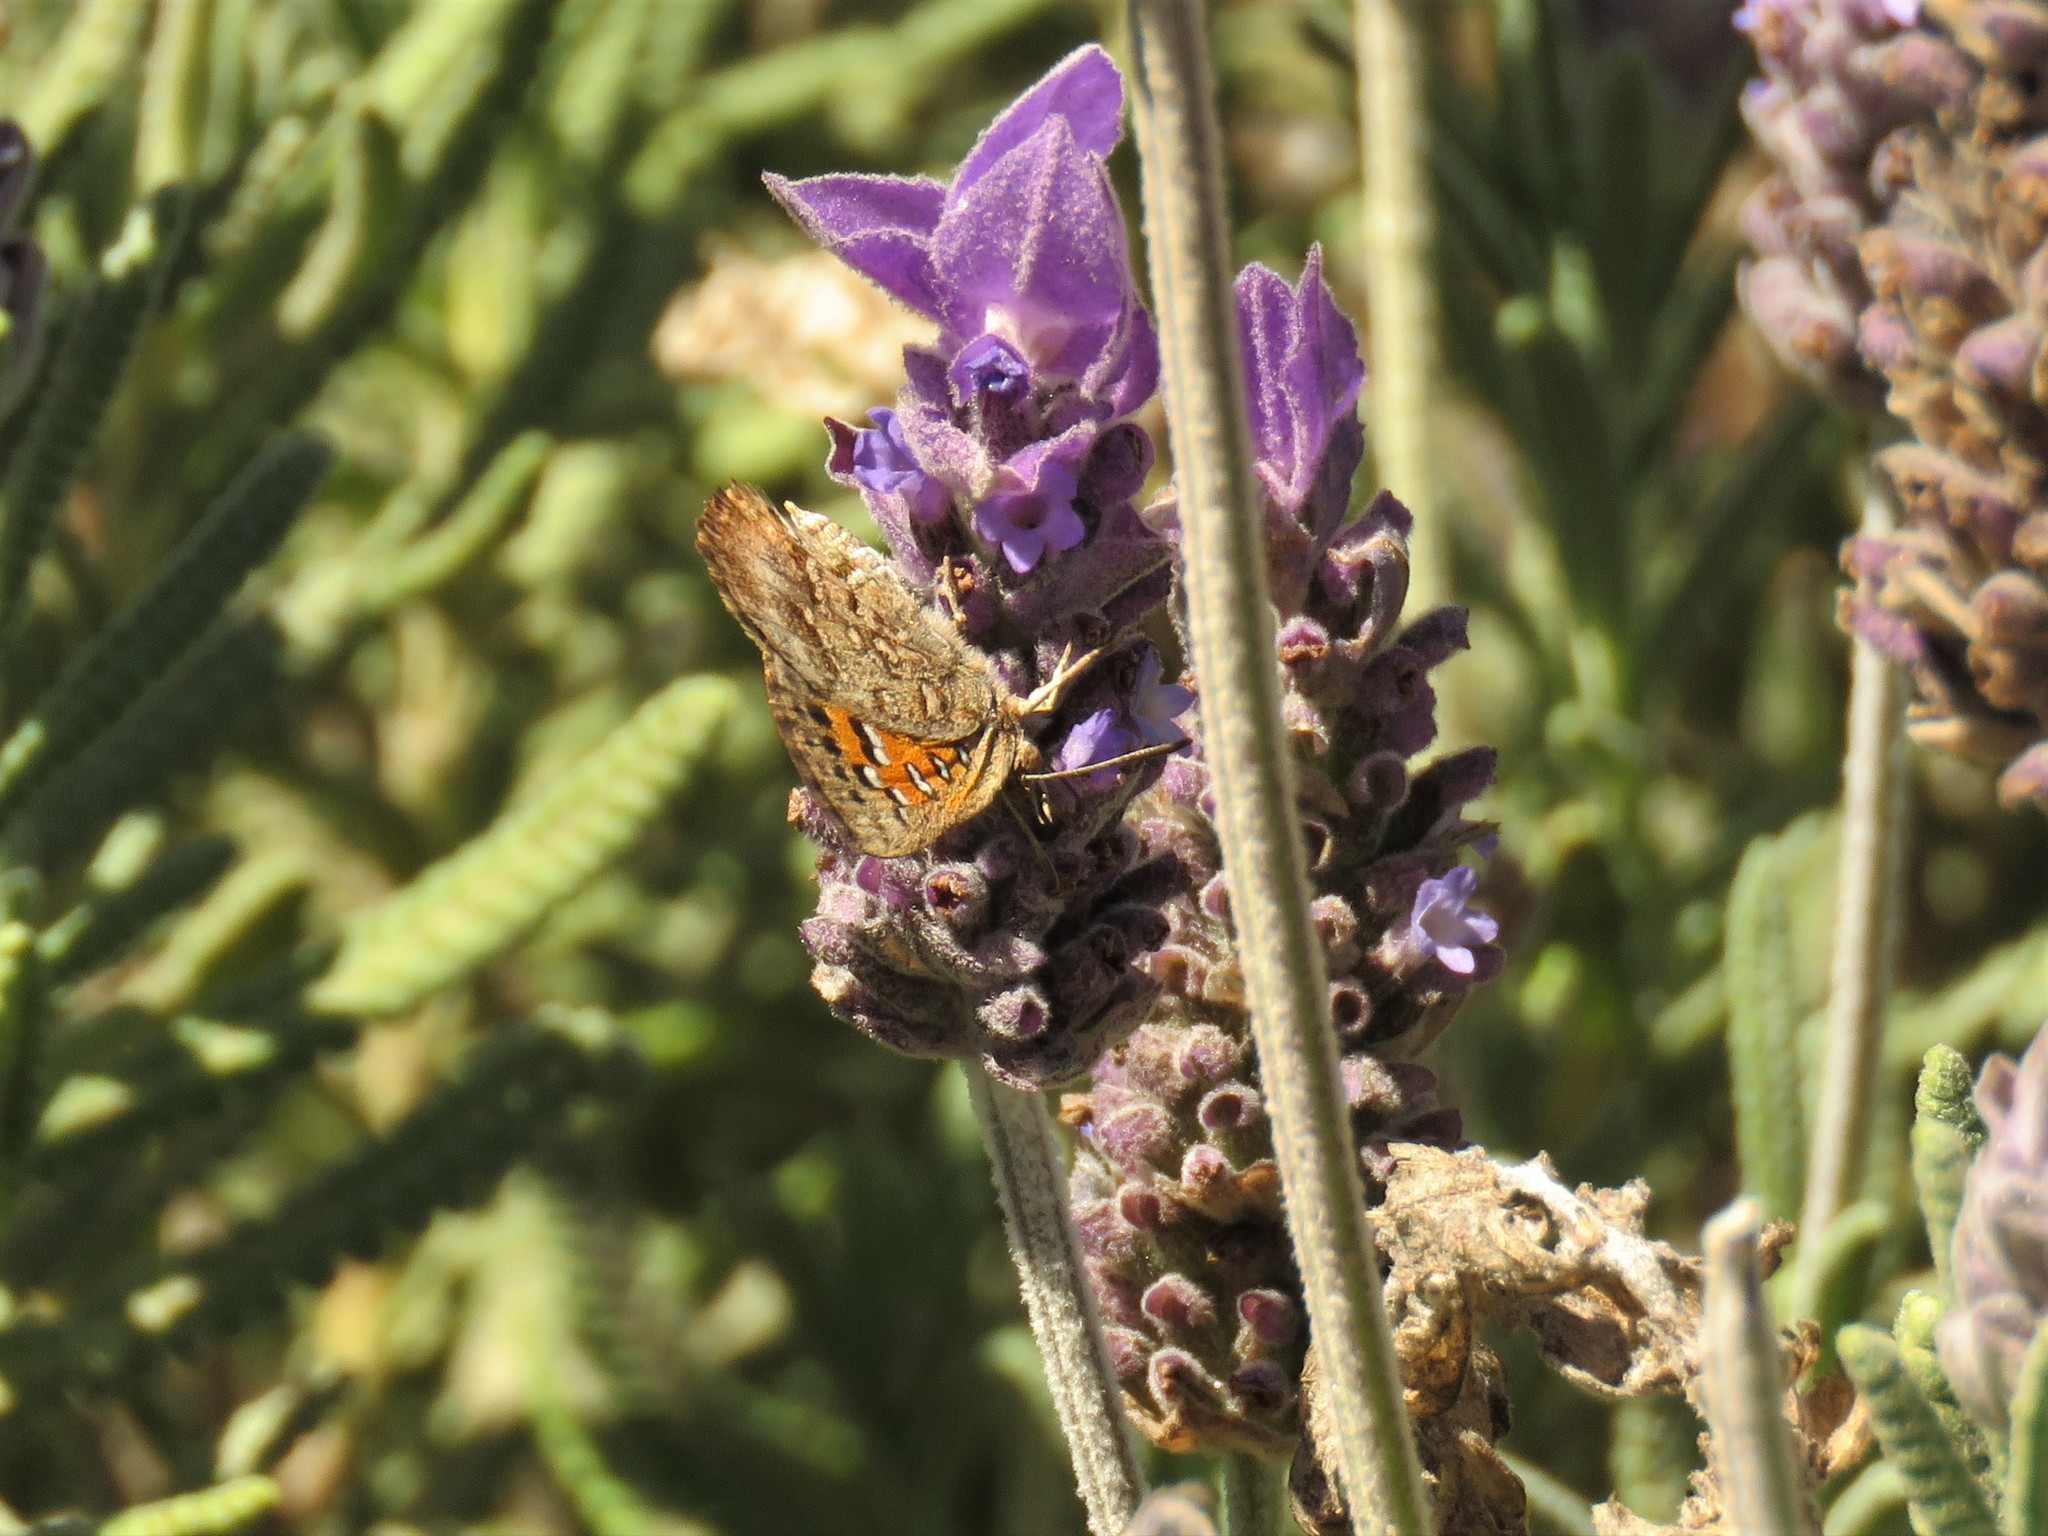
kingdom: Animalia
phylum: Arthropoda
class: Insecta
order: Lepidoptera
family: Lycaenidae
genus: Aloeides
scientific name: Aloeides pierus
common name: Dull copper
